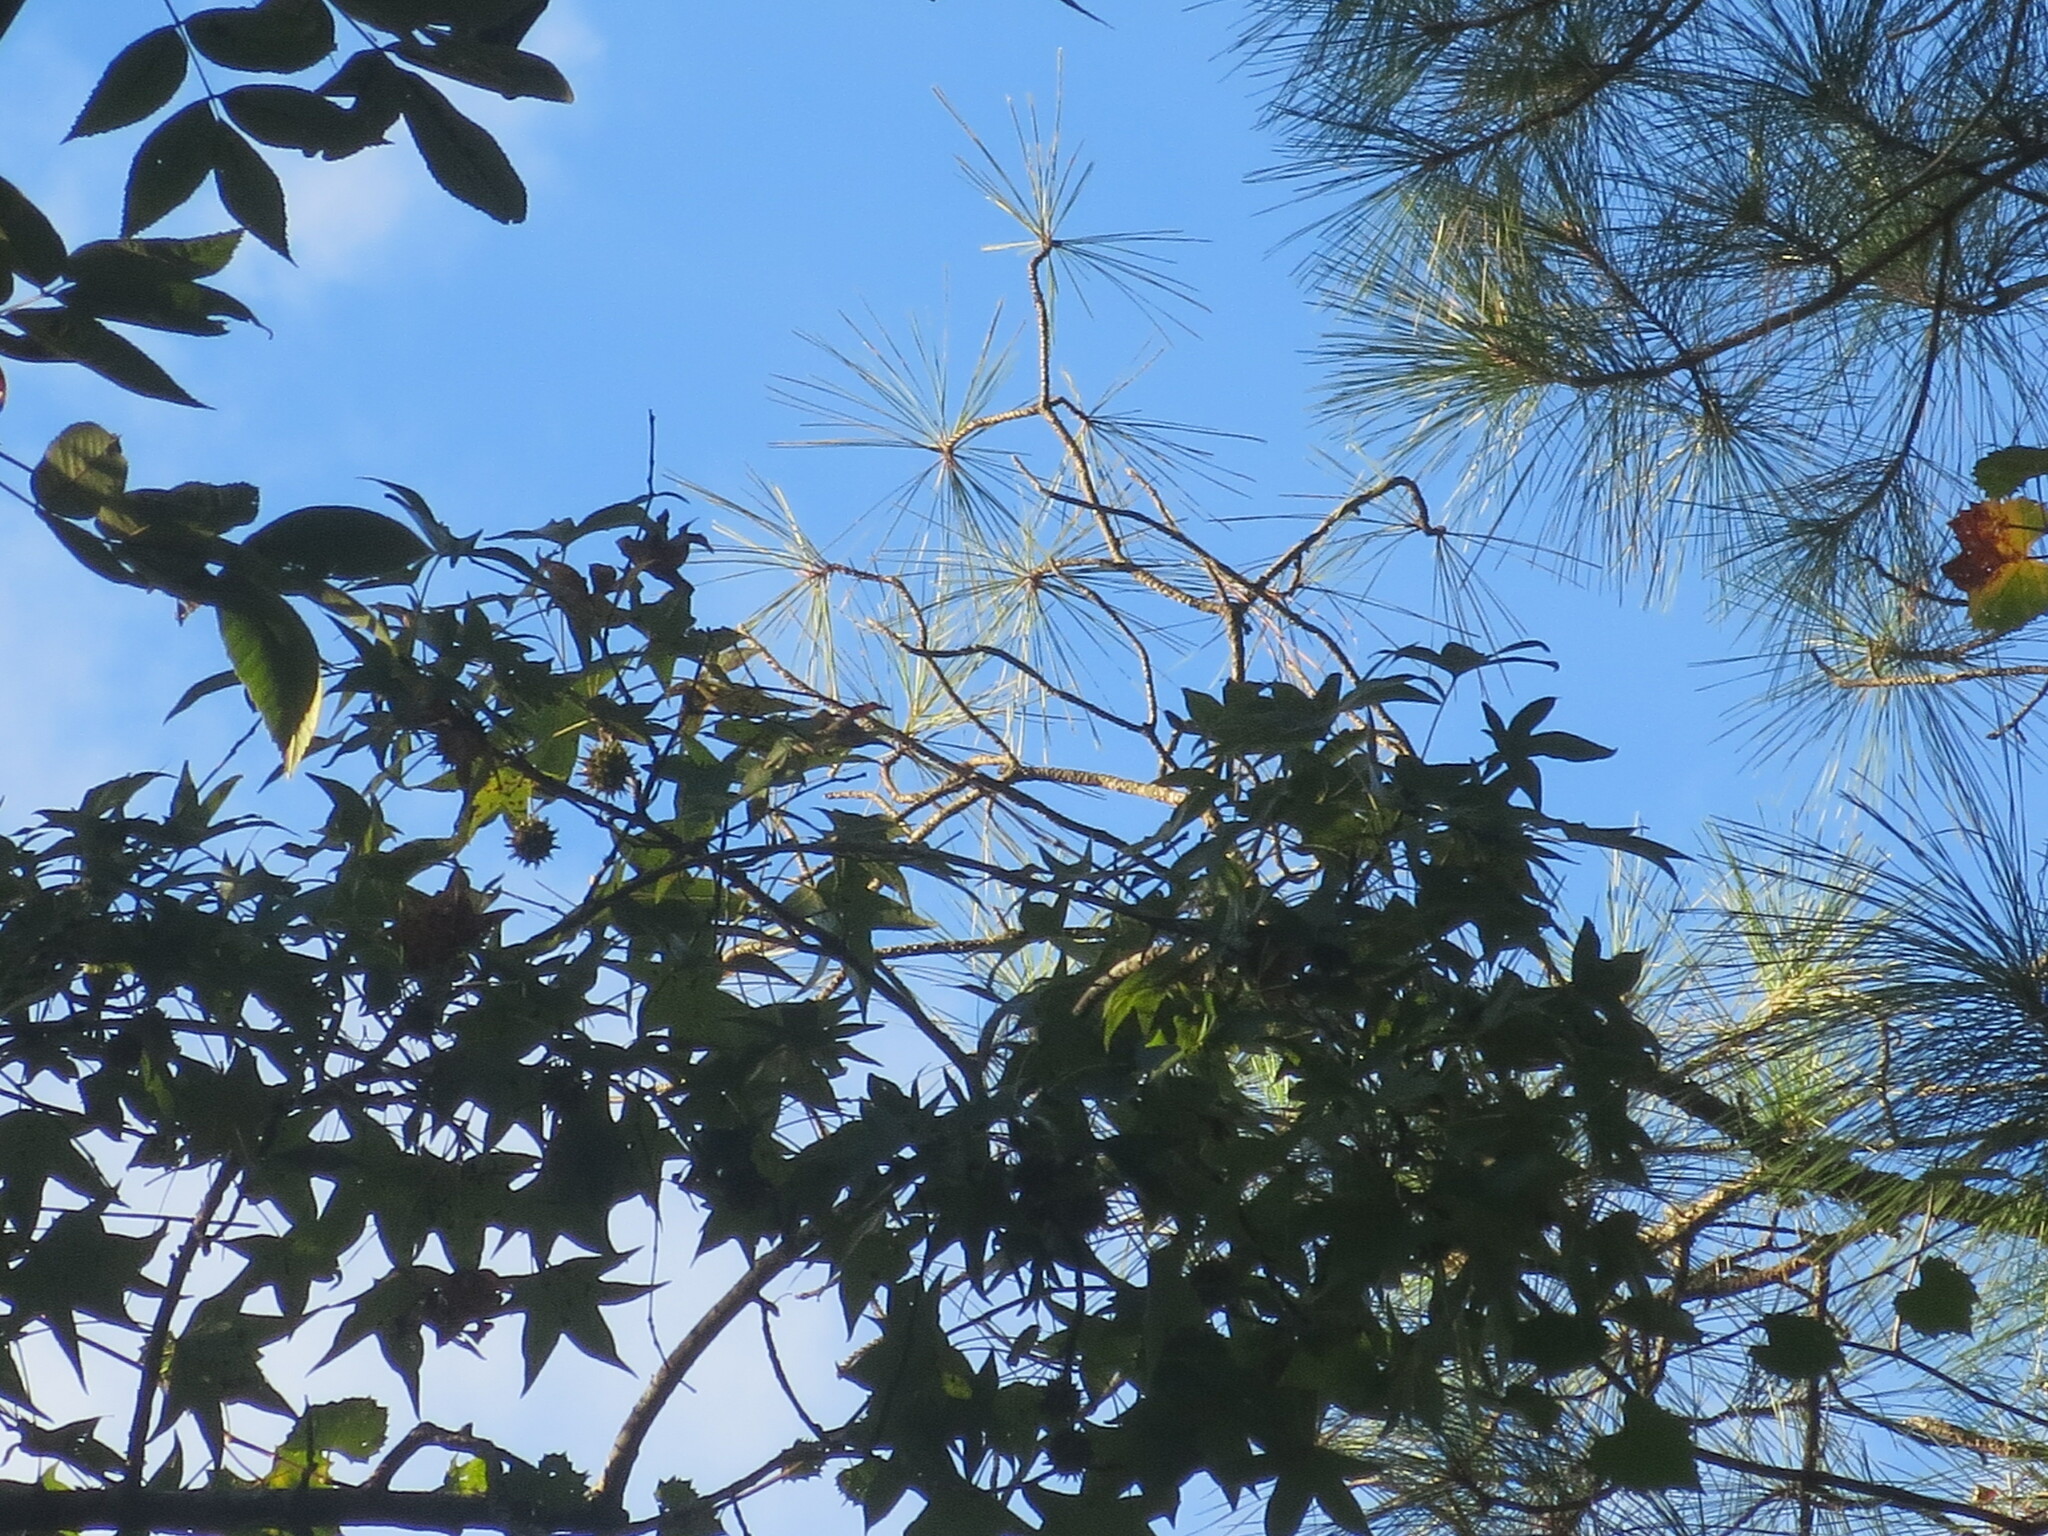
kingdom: Plantae
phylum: Tracheophyta
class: Magnoliopsida
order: Saxifragales
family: Altingiaceae
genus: Liquidambar
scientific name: Liquidambar styraciflua
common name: Sweet gum
